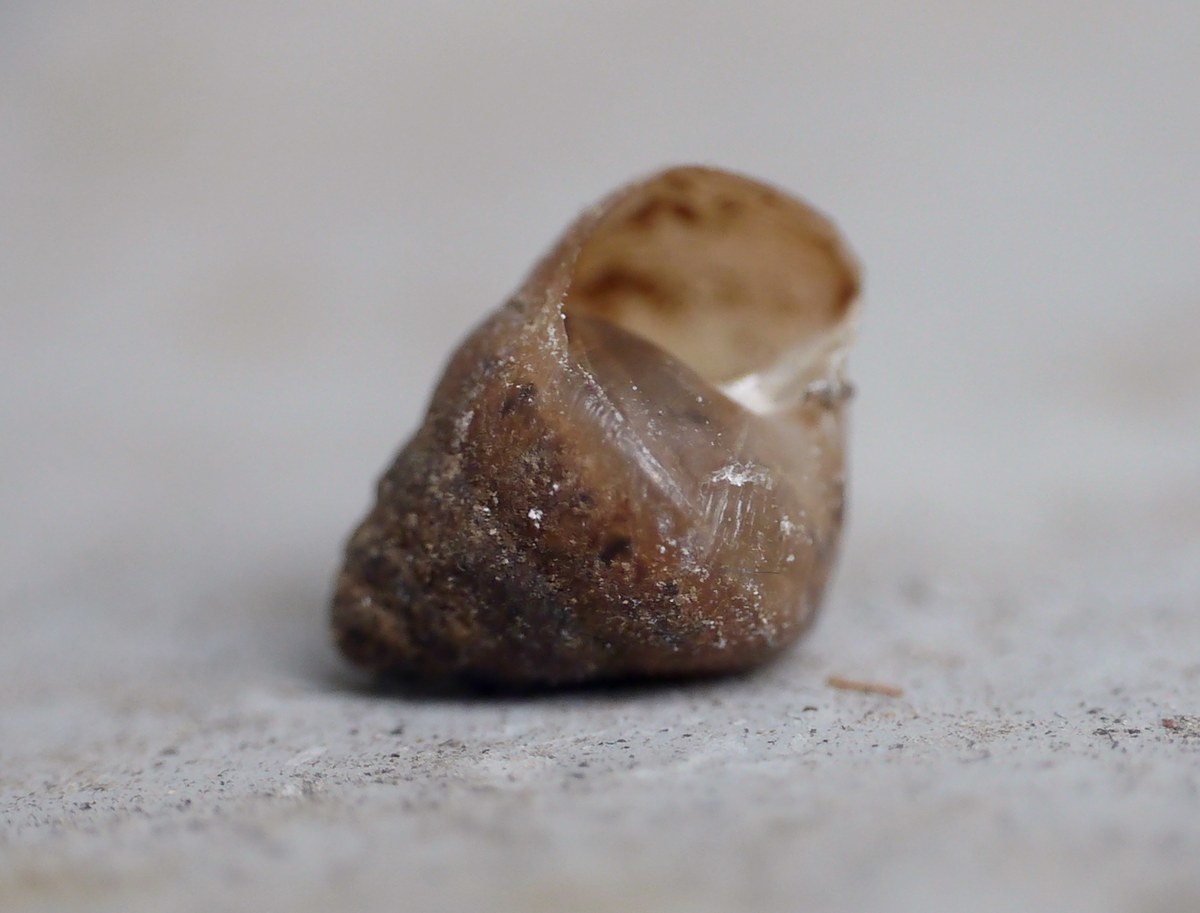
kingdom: Animalia
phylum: Mollusca
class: Gastropoda
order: Stylommatophora
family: Enidae
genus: Chondrula
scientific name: Chondrula tridens
